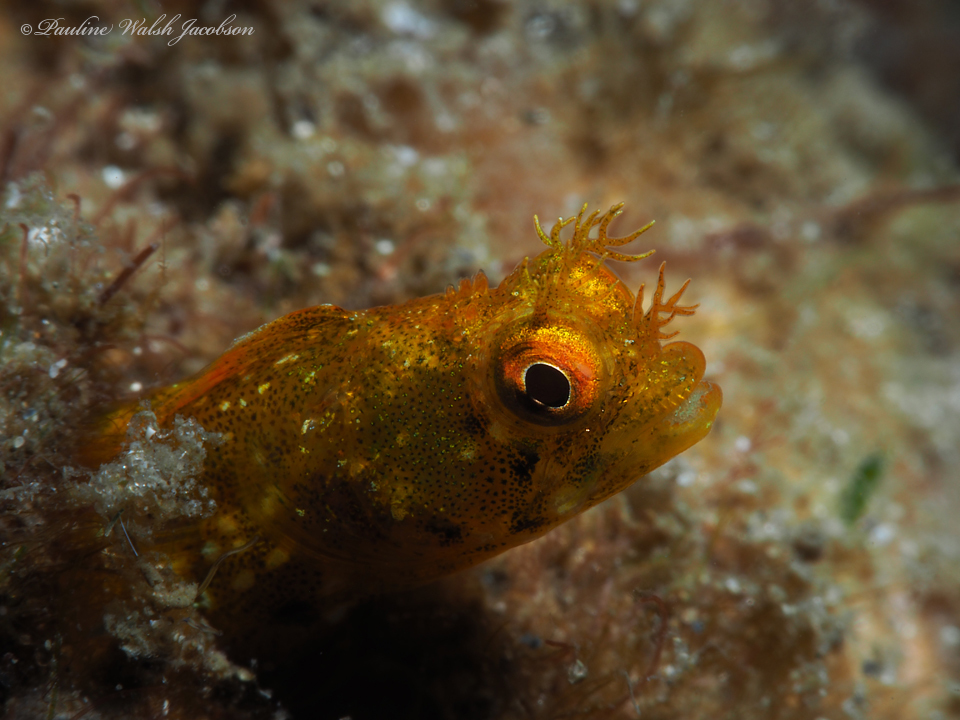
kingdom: Animalia
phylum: Chordata
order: Perciformes
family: Chaenopsidae
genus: Acanthemblemaria
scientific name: Acanthemblemaria aspera
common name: Roughhead blenny
